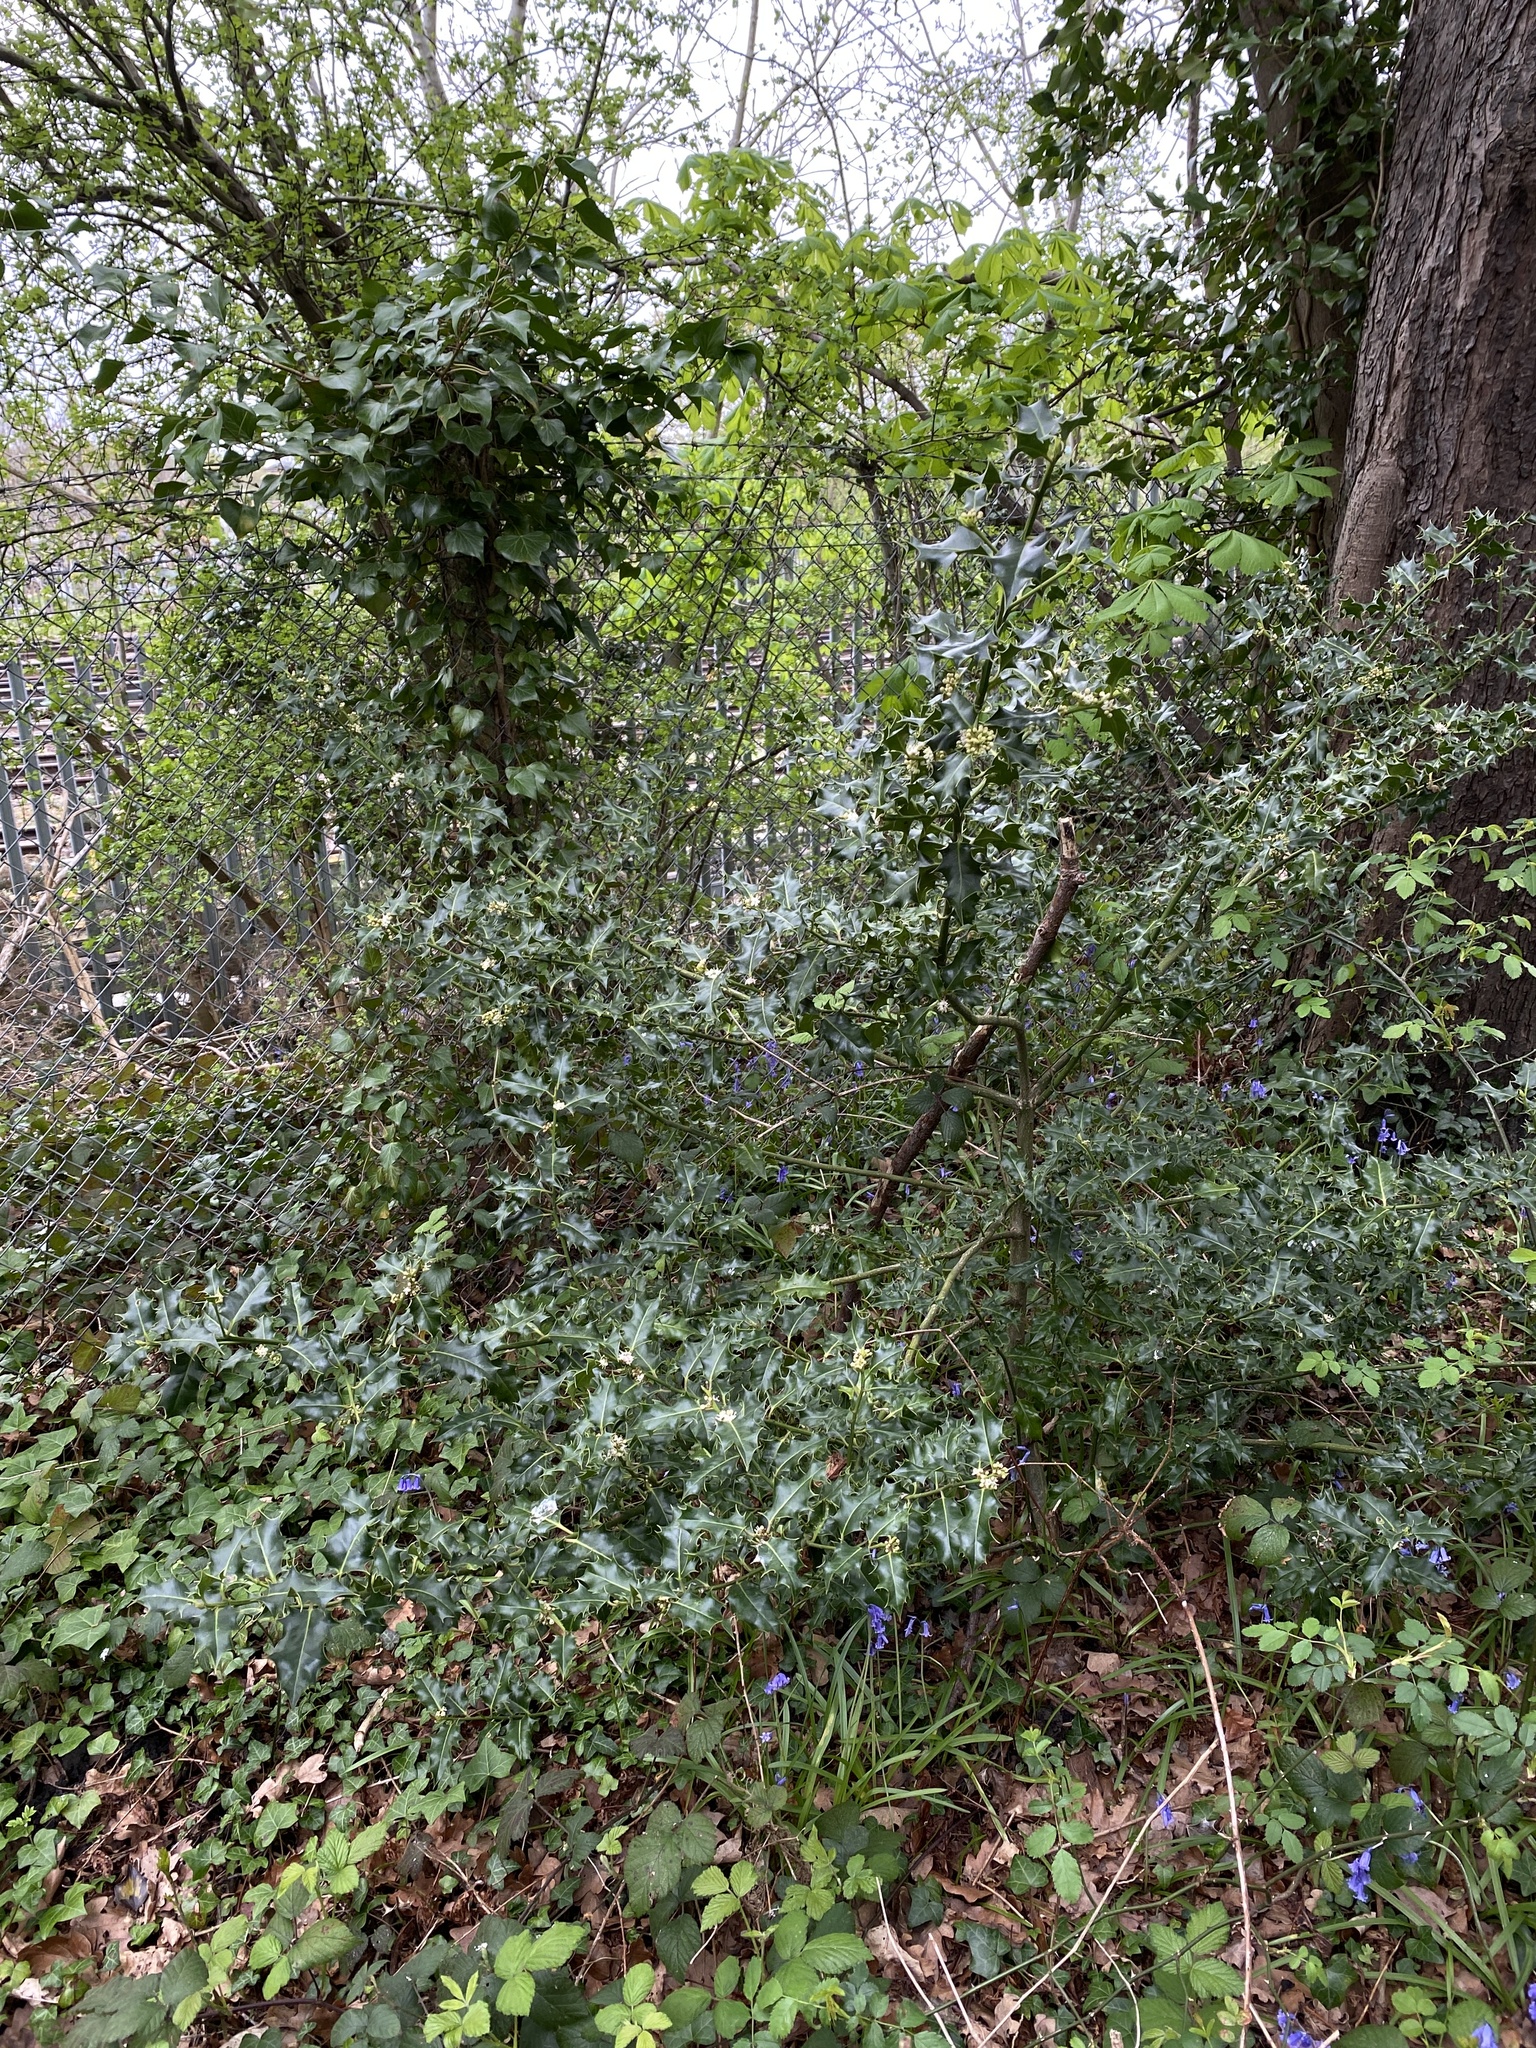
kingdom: Plantae
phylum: Tracheophyta
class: Magnoliopsida
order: Aquifoliales
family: Aquifoliaceae
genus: Ilex
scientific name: Ilex aquifolium
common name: English holly
